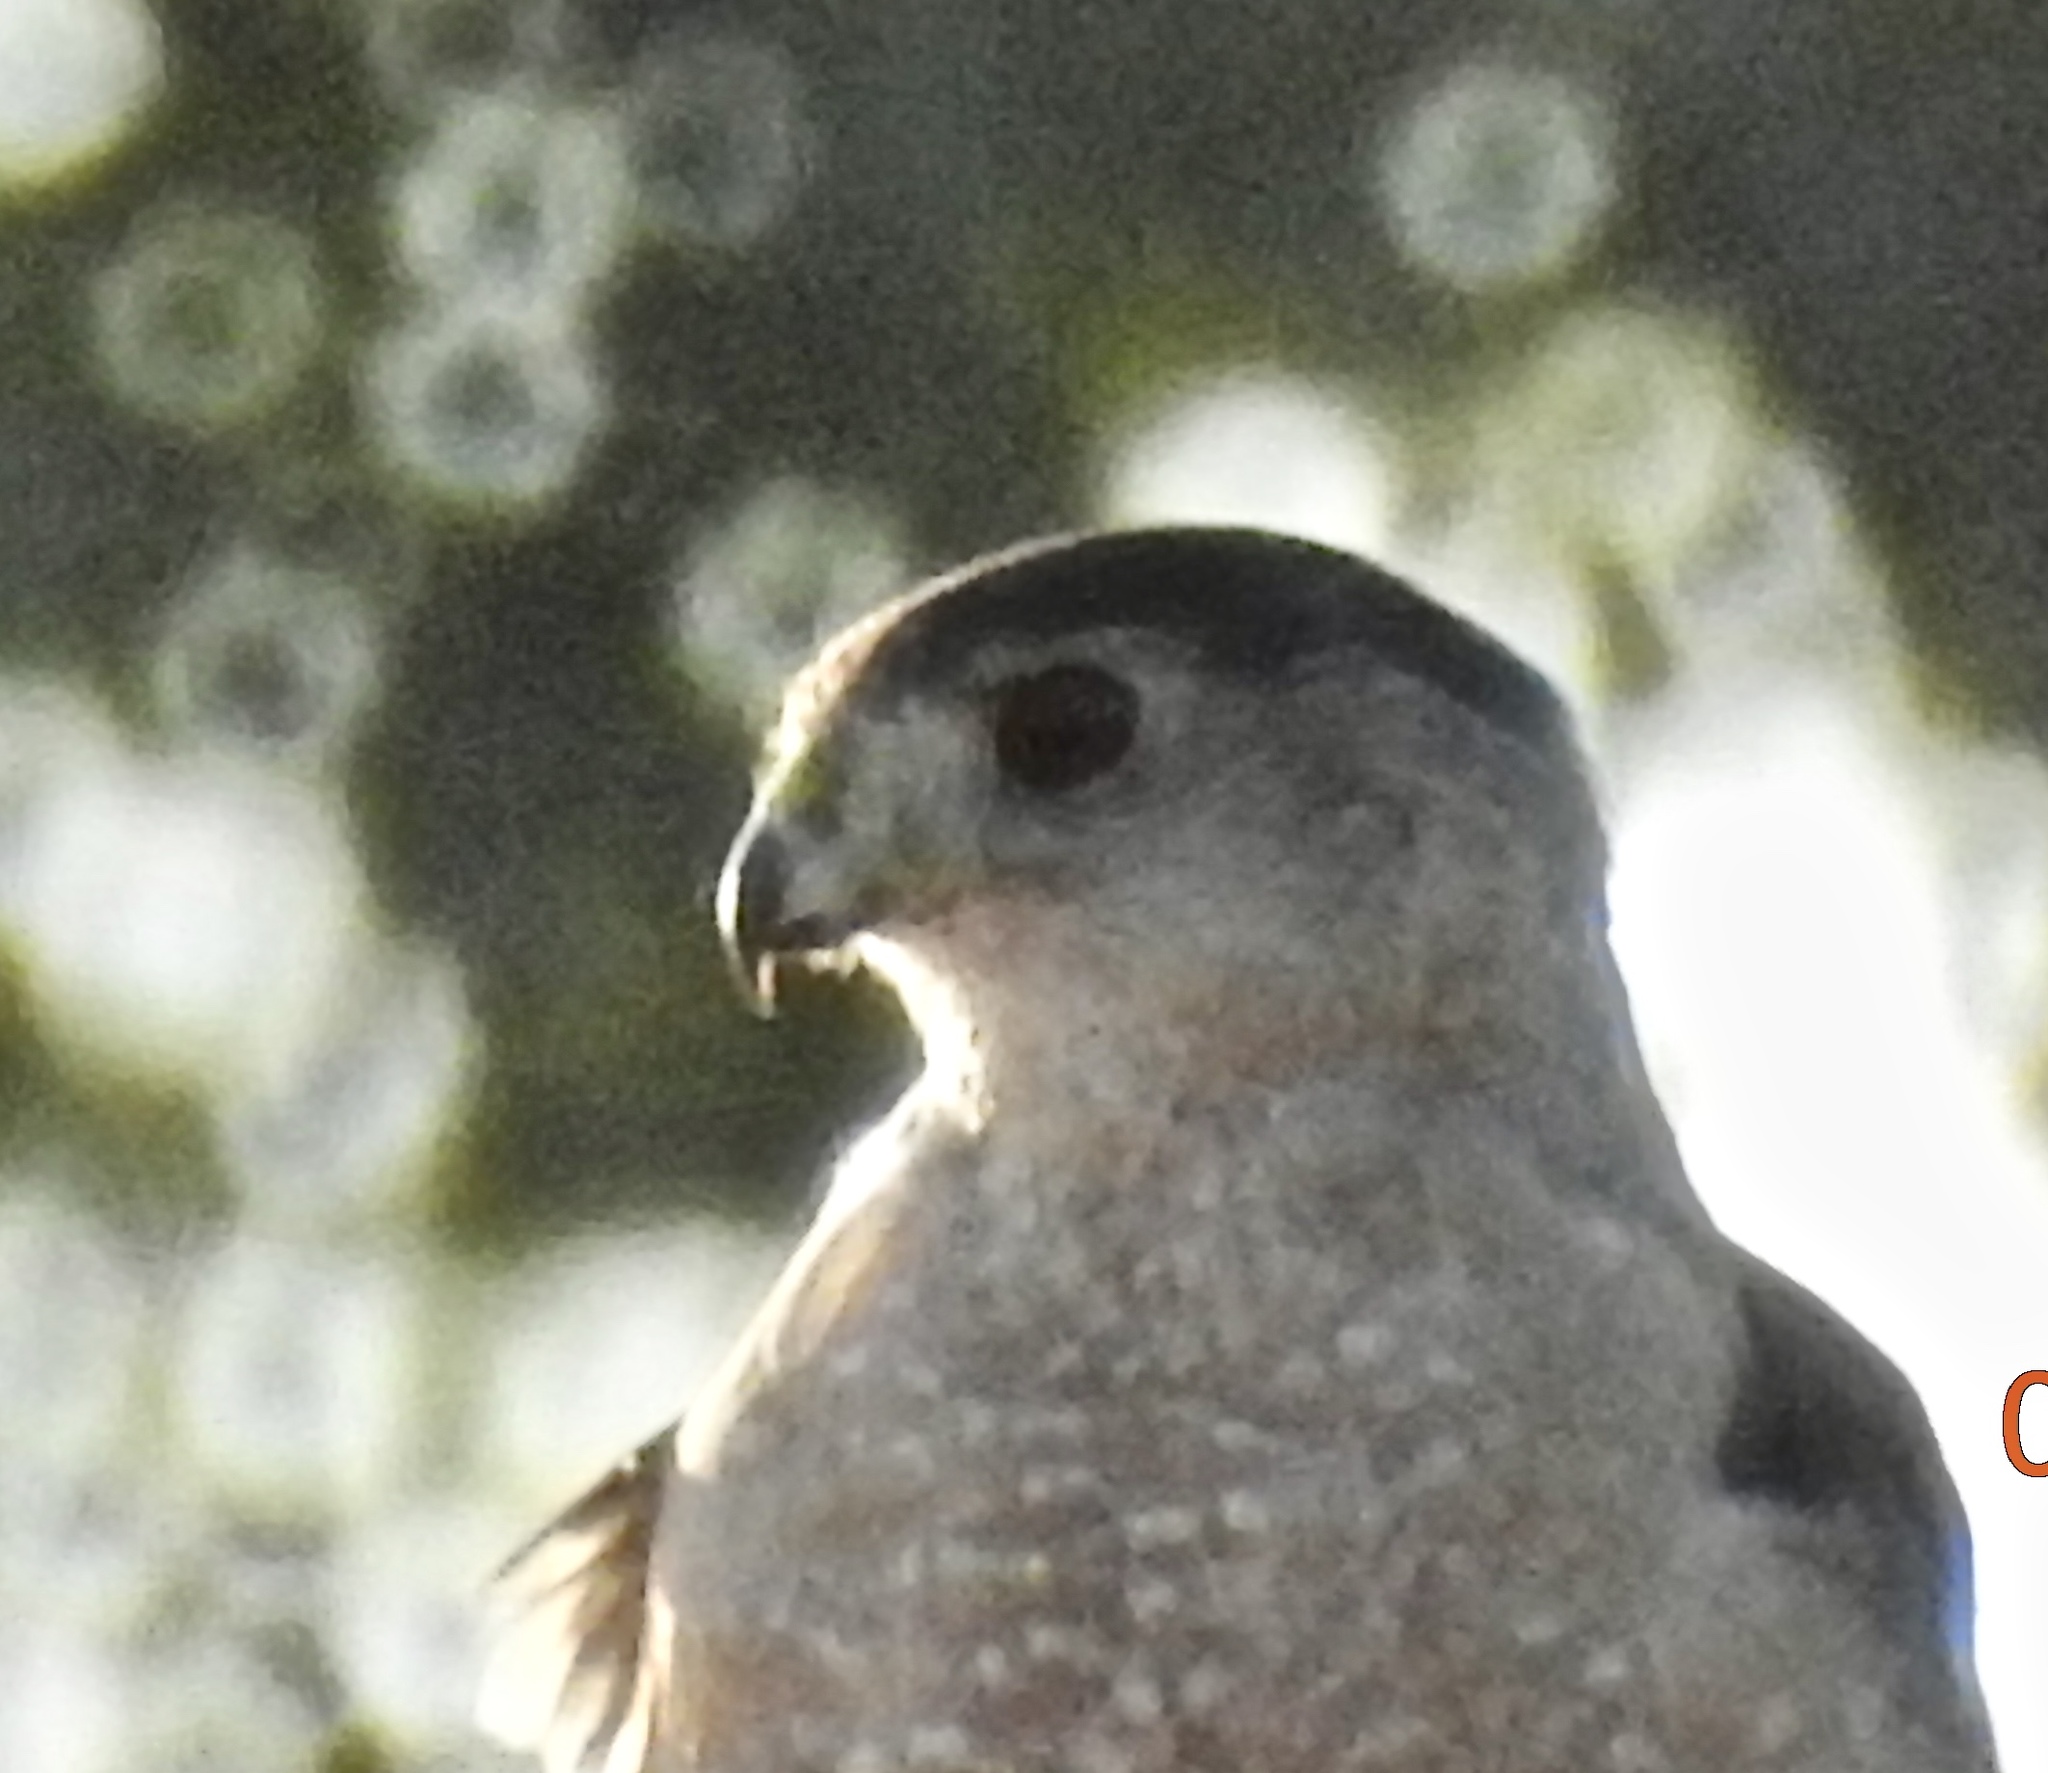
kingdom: Animalia
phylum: Chordata
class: Aves
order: Accipitriformes
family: Accipitridae
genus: Accipiter
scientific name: Accipiter cooperii
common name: Cooper's hawk
